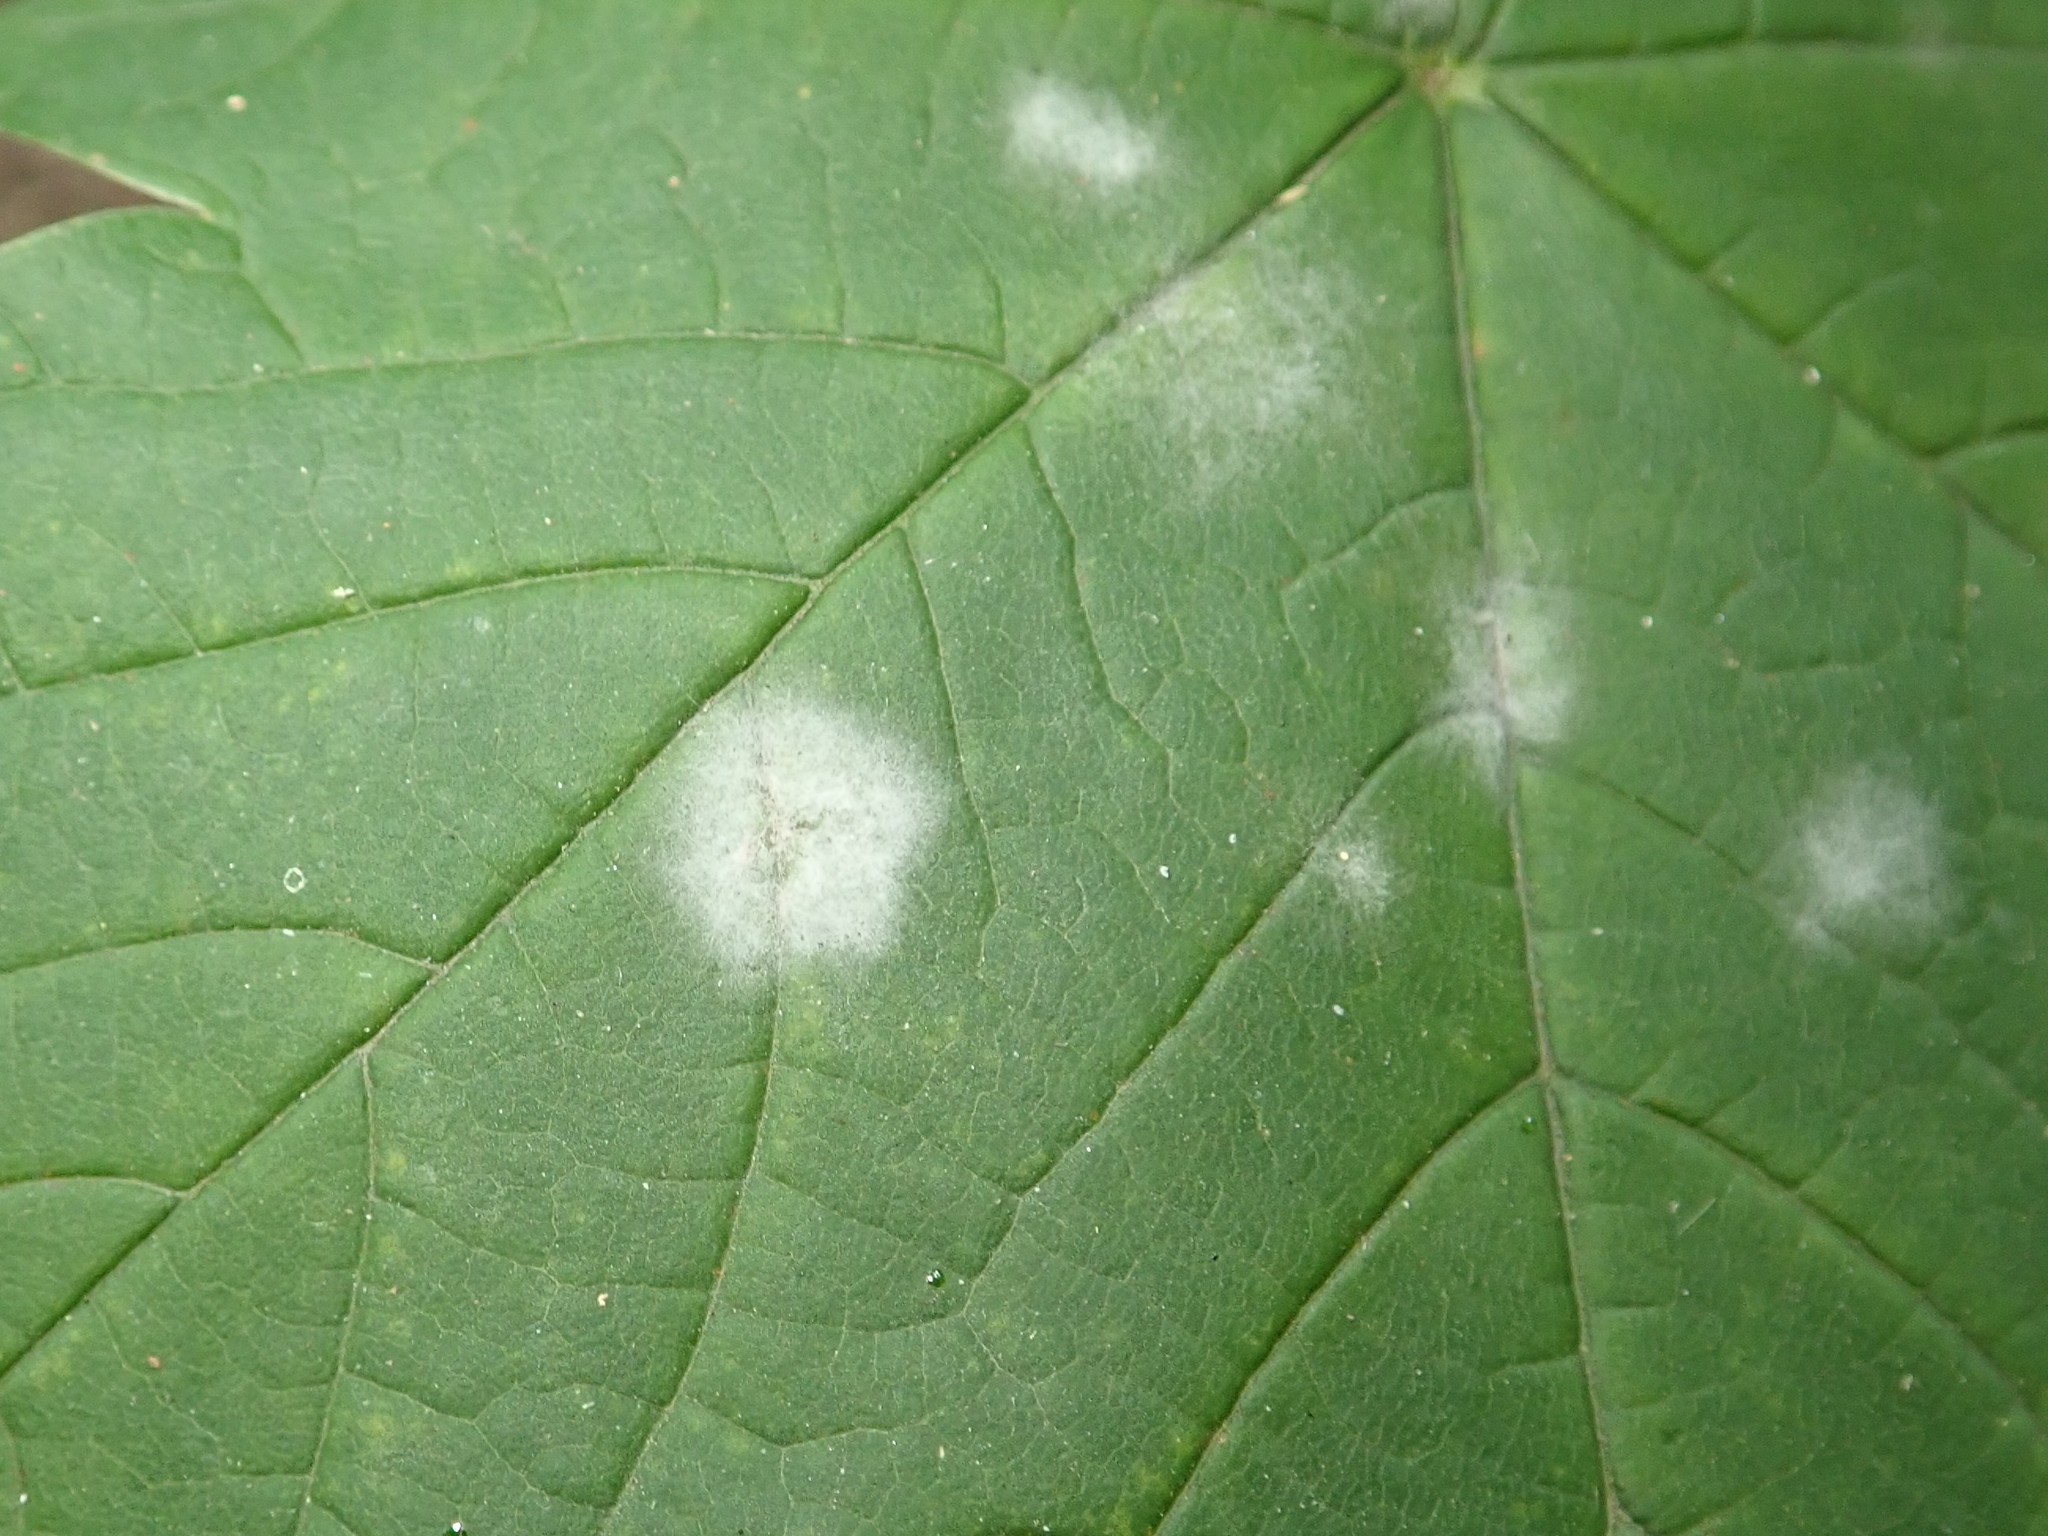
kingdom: Fungi
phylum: Ascomycota
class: Leotiomycetes
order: Helotiales
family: Erysiphaceae
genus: Sawadaea
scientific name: Sawadaea bicornis
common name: Maple mildew
